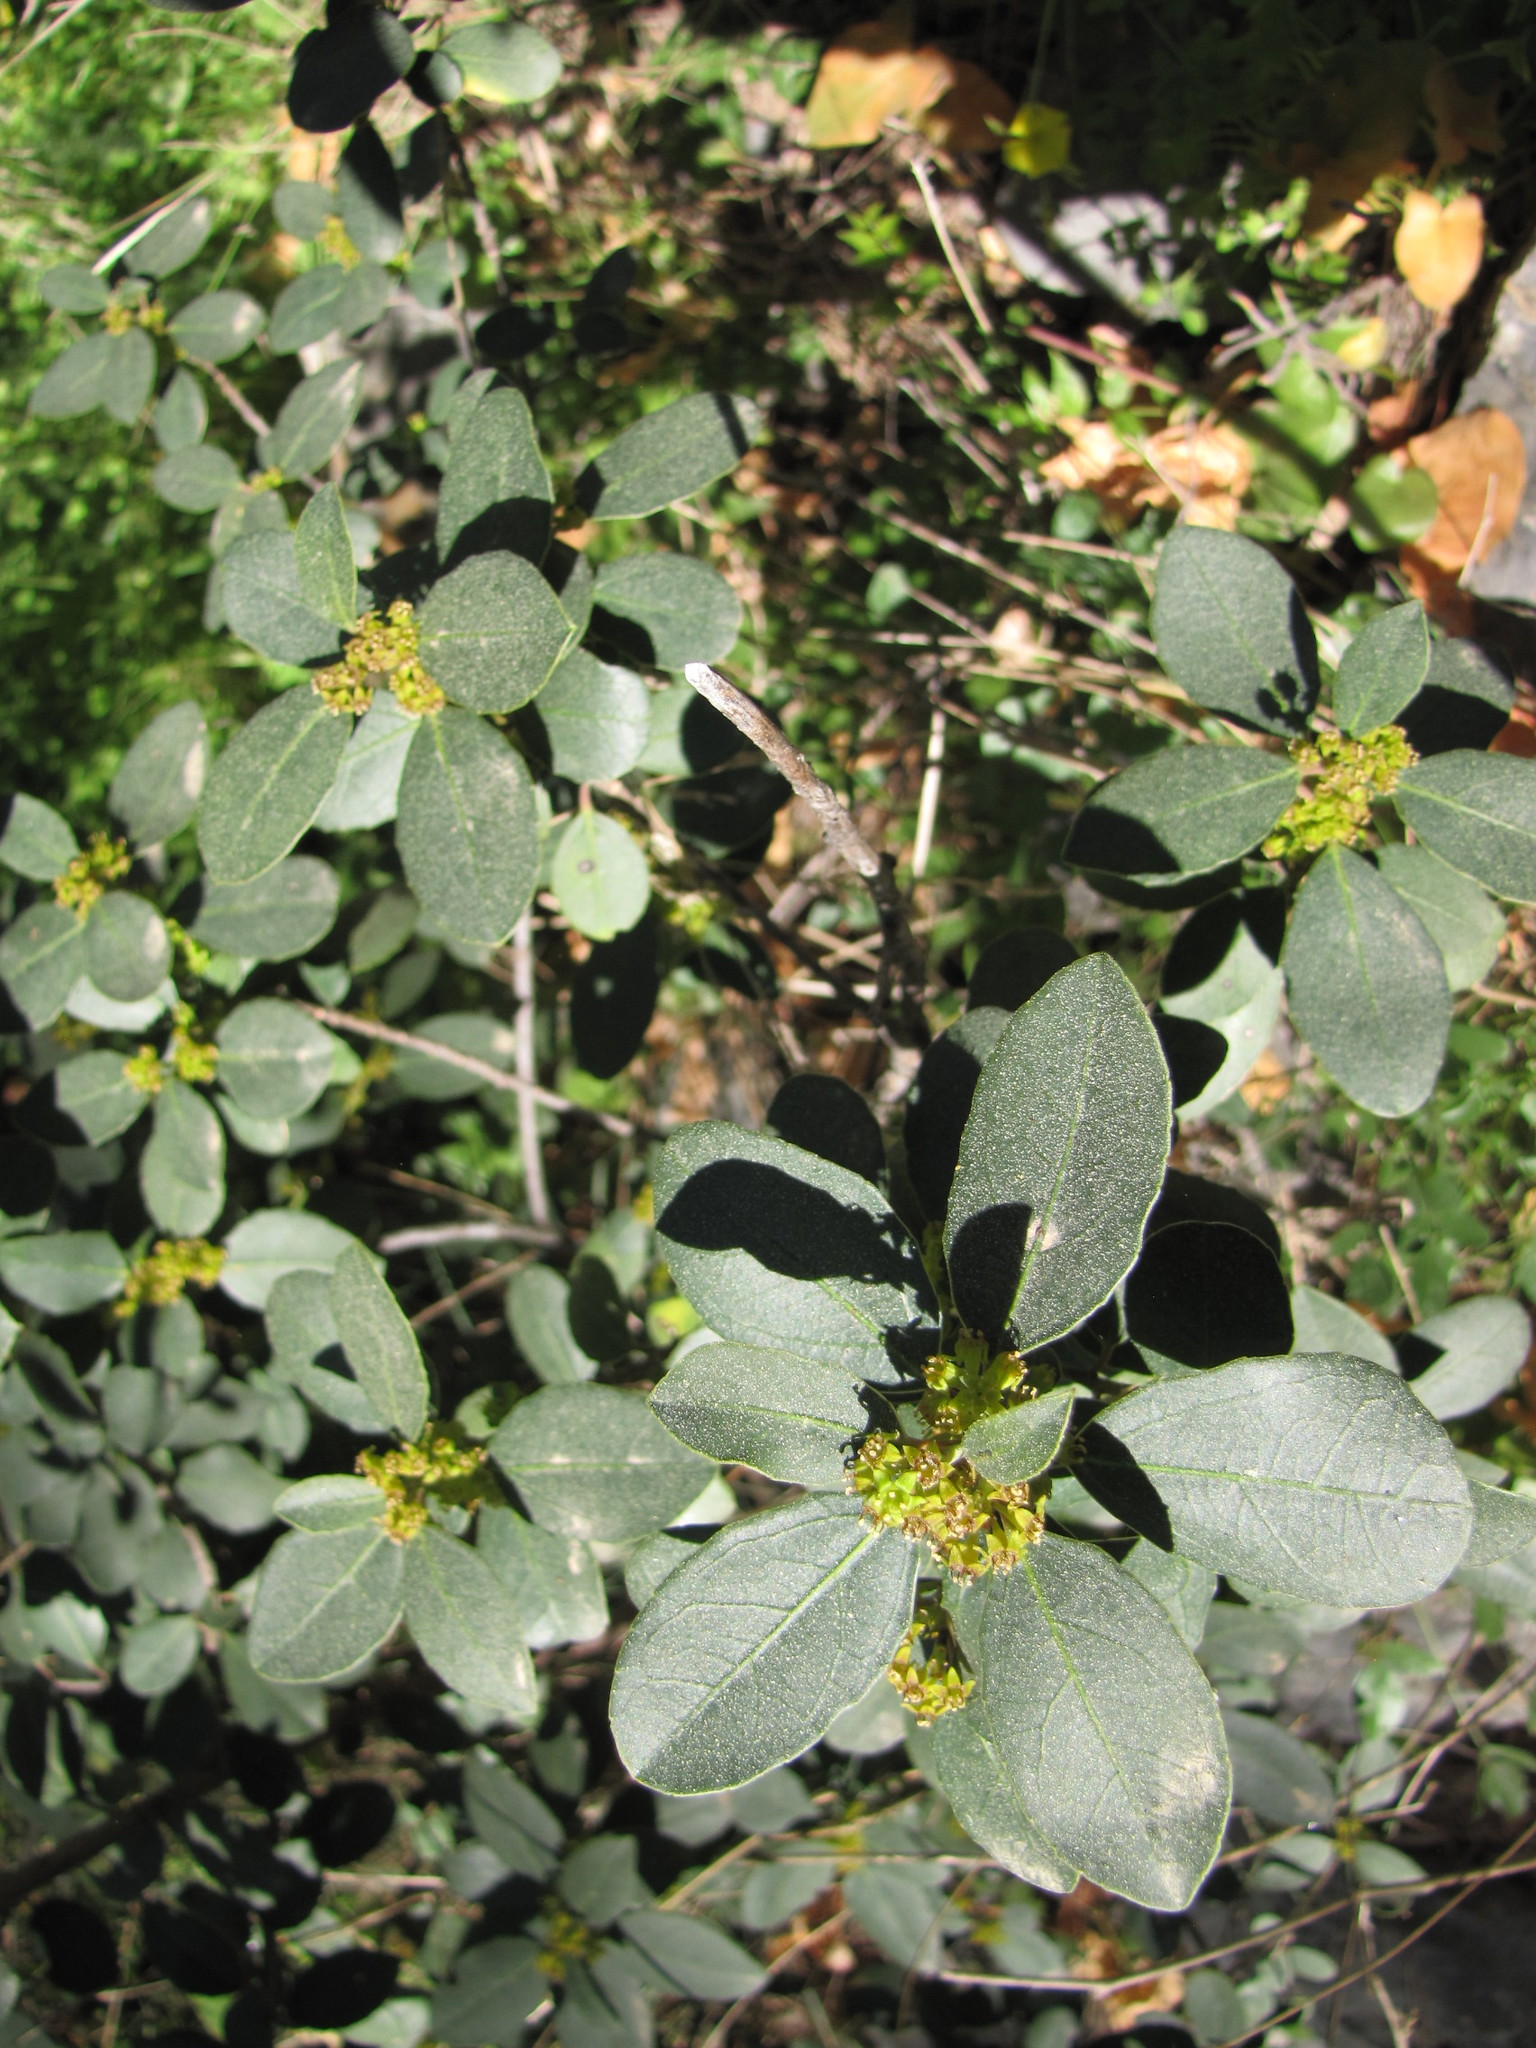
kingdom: Plantae
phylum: Tracheophyta
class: Magnoliopsida
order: Rosales
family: Rhamnaceae
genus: Rhamnus
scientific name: Rhamnus alaternus
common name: Mediterranean buckthorn
